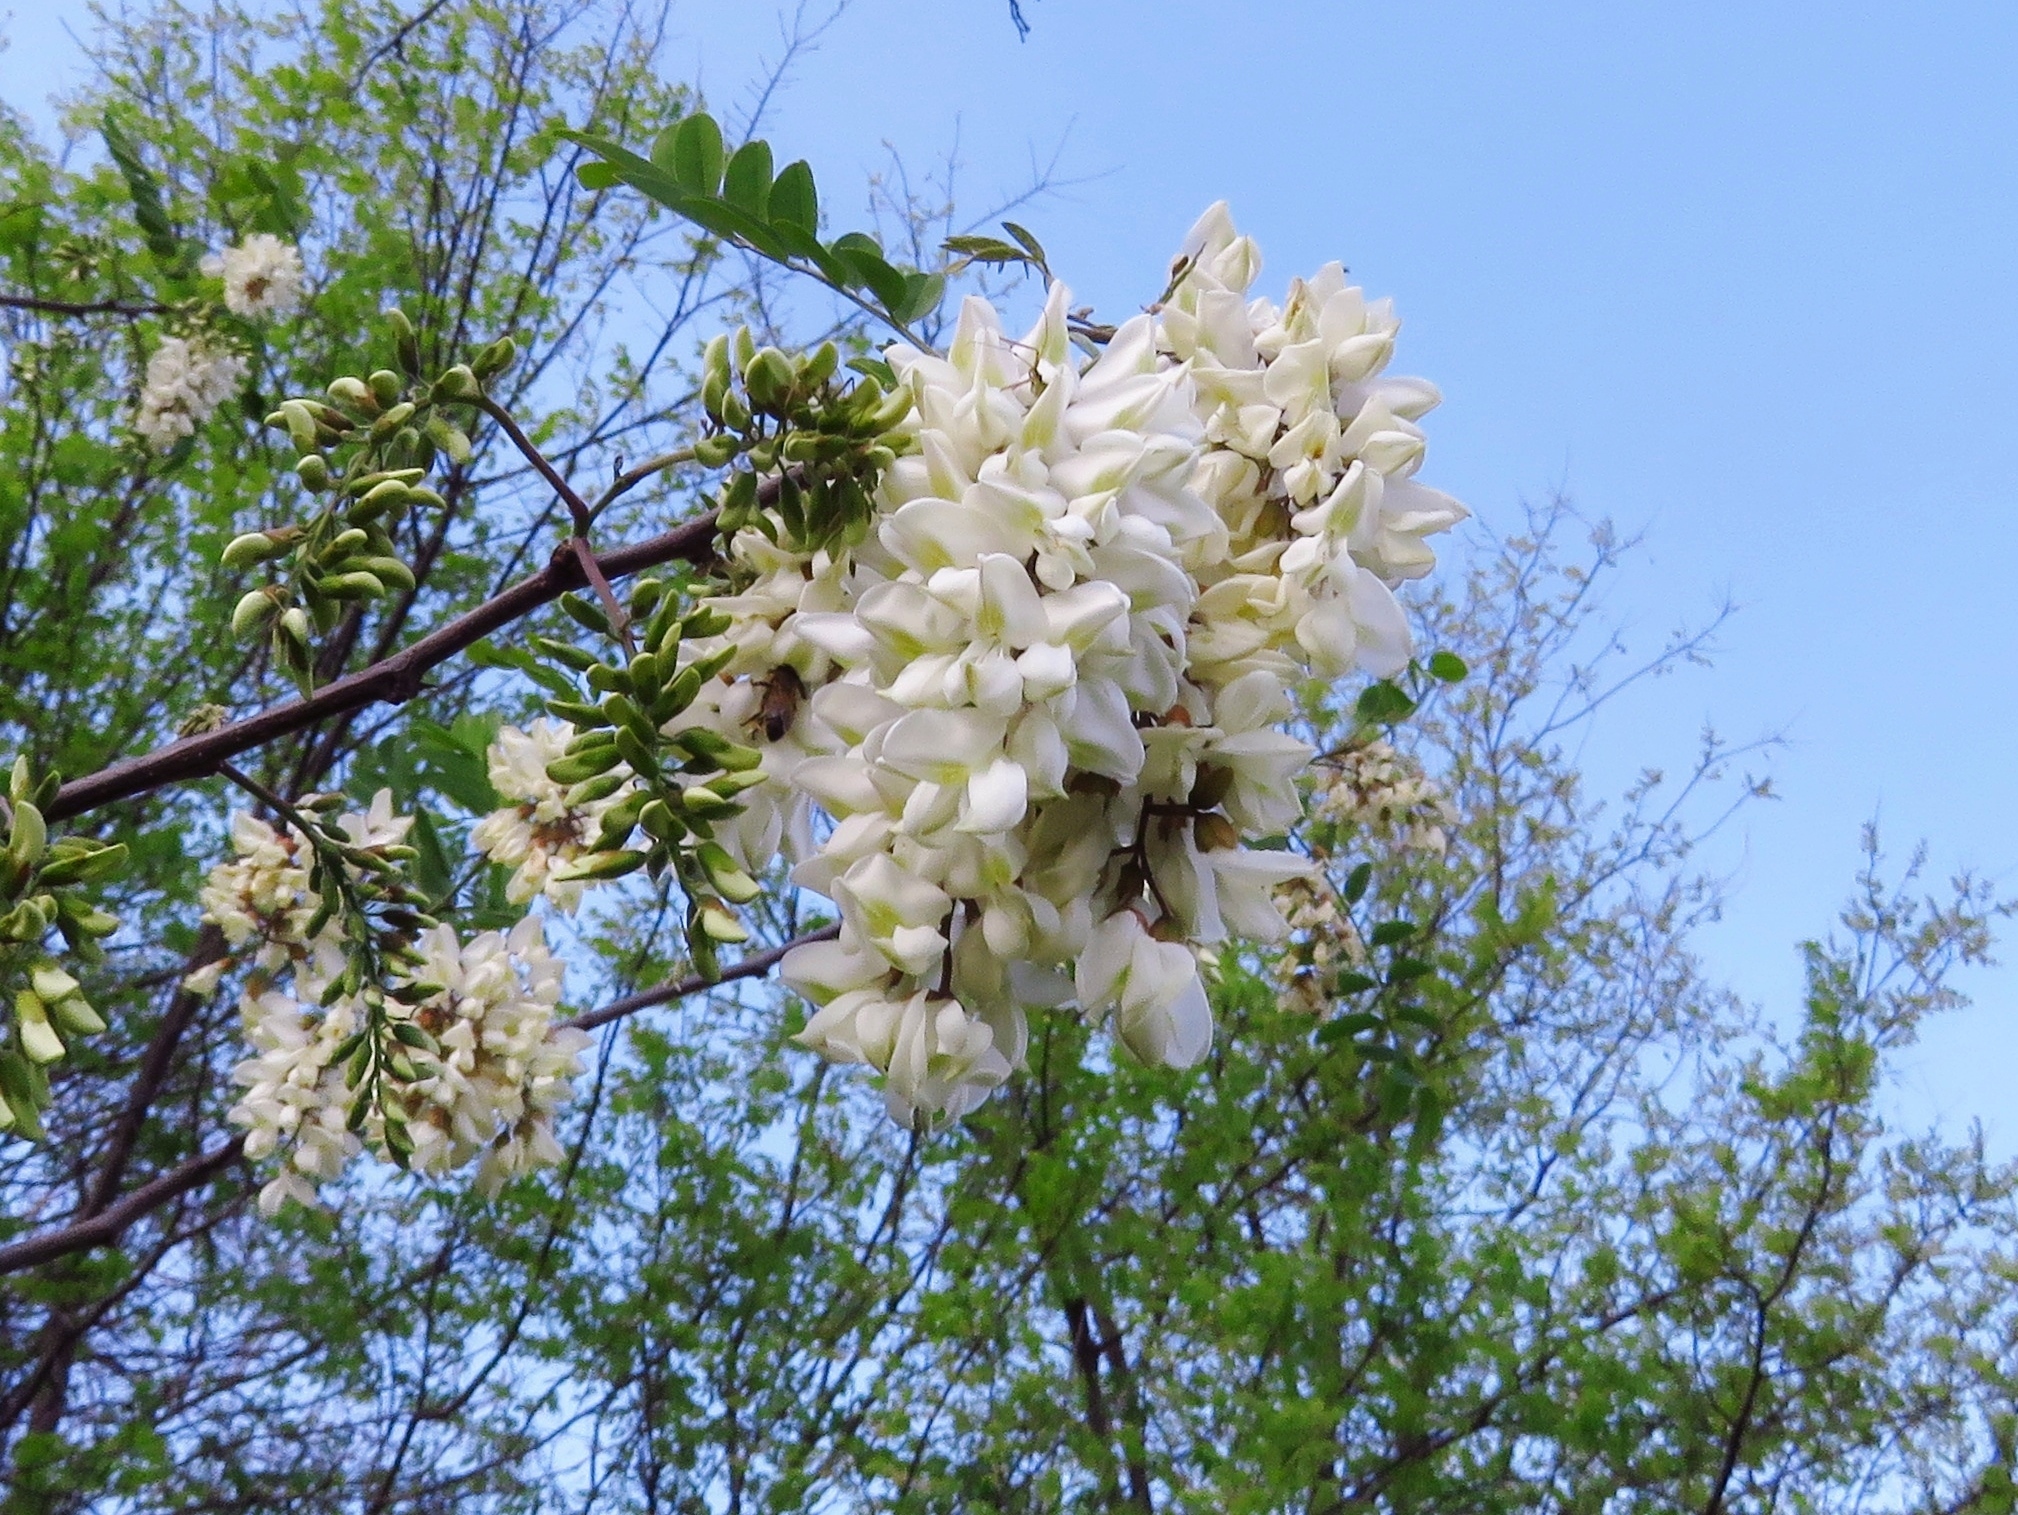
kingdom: Plantae
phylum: Tracheophyta
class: Magnoliopsida
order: Fabales
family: Fabaceae
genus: Robinia
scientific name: Robinia pseudoacacia
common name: Black locust
